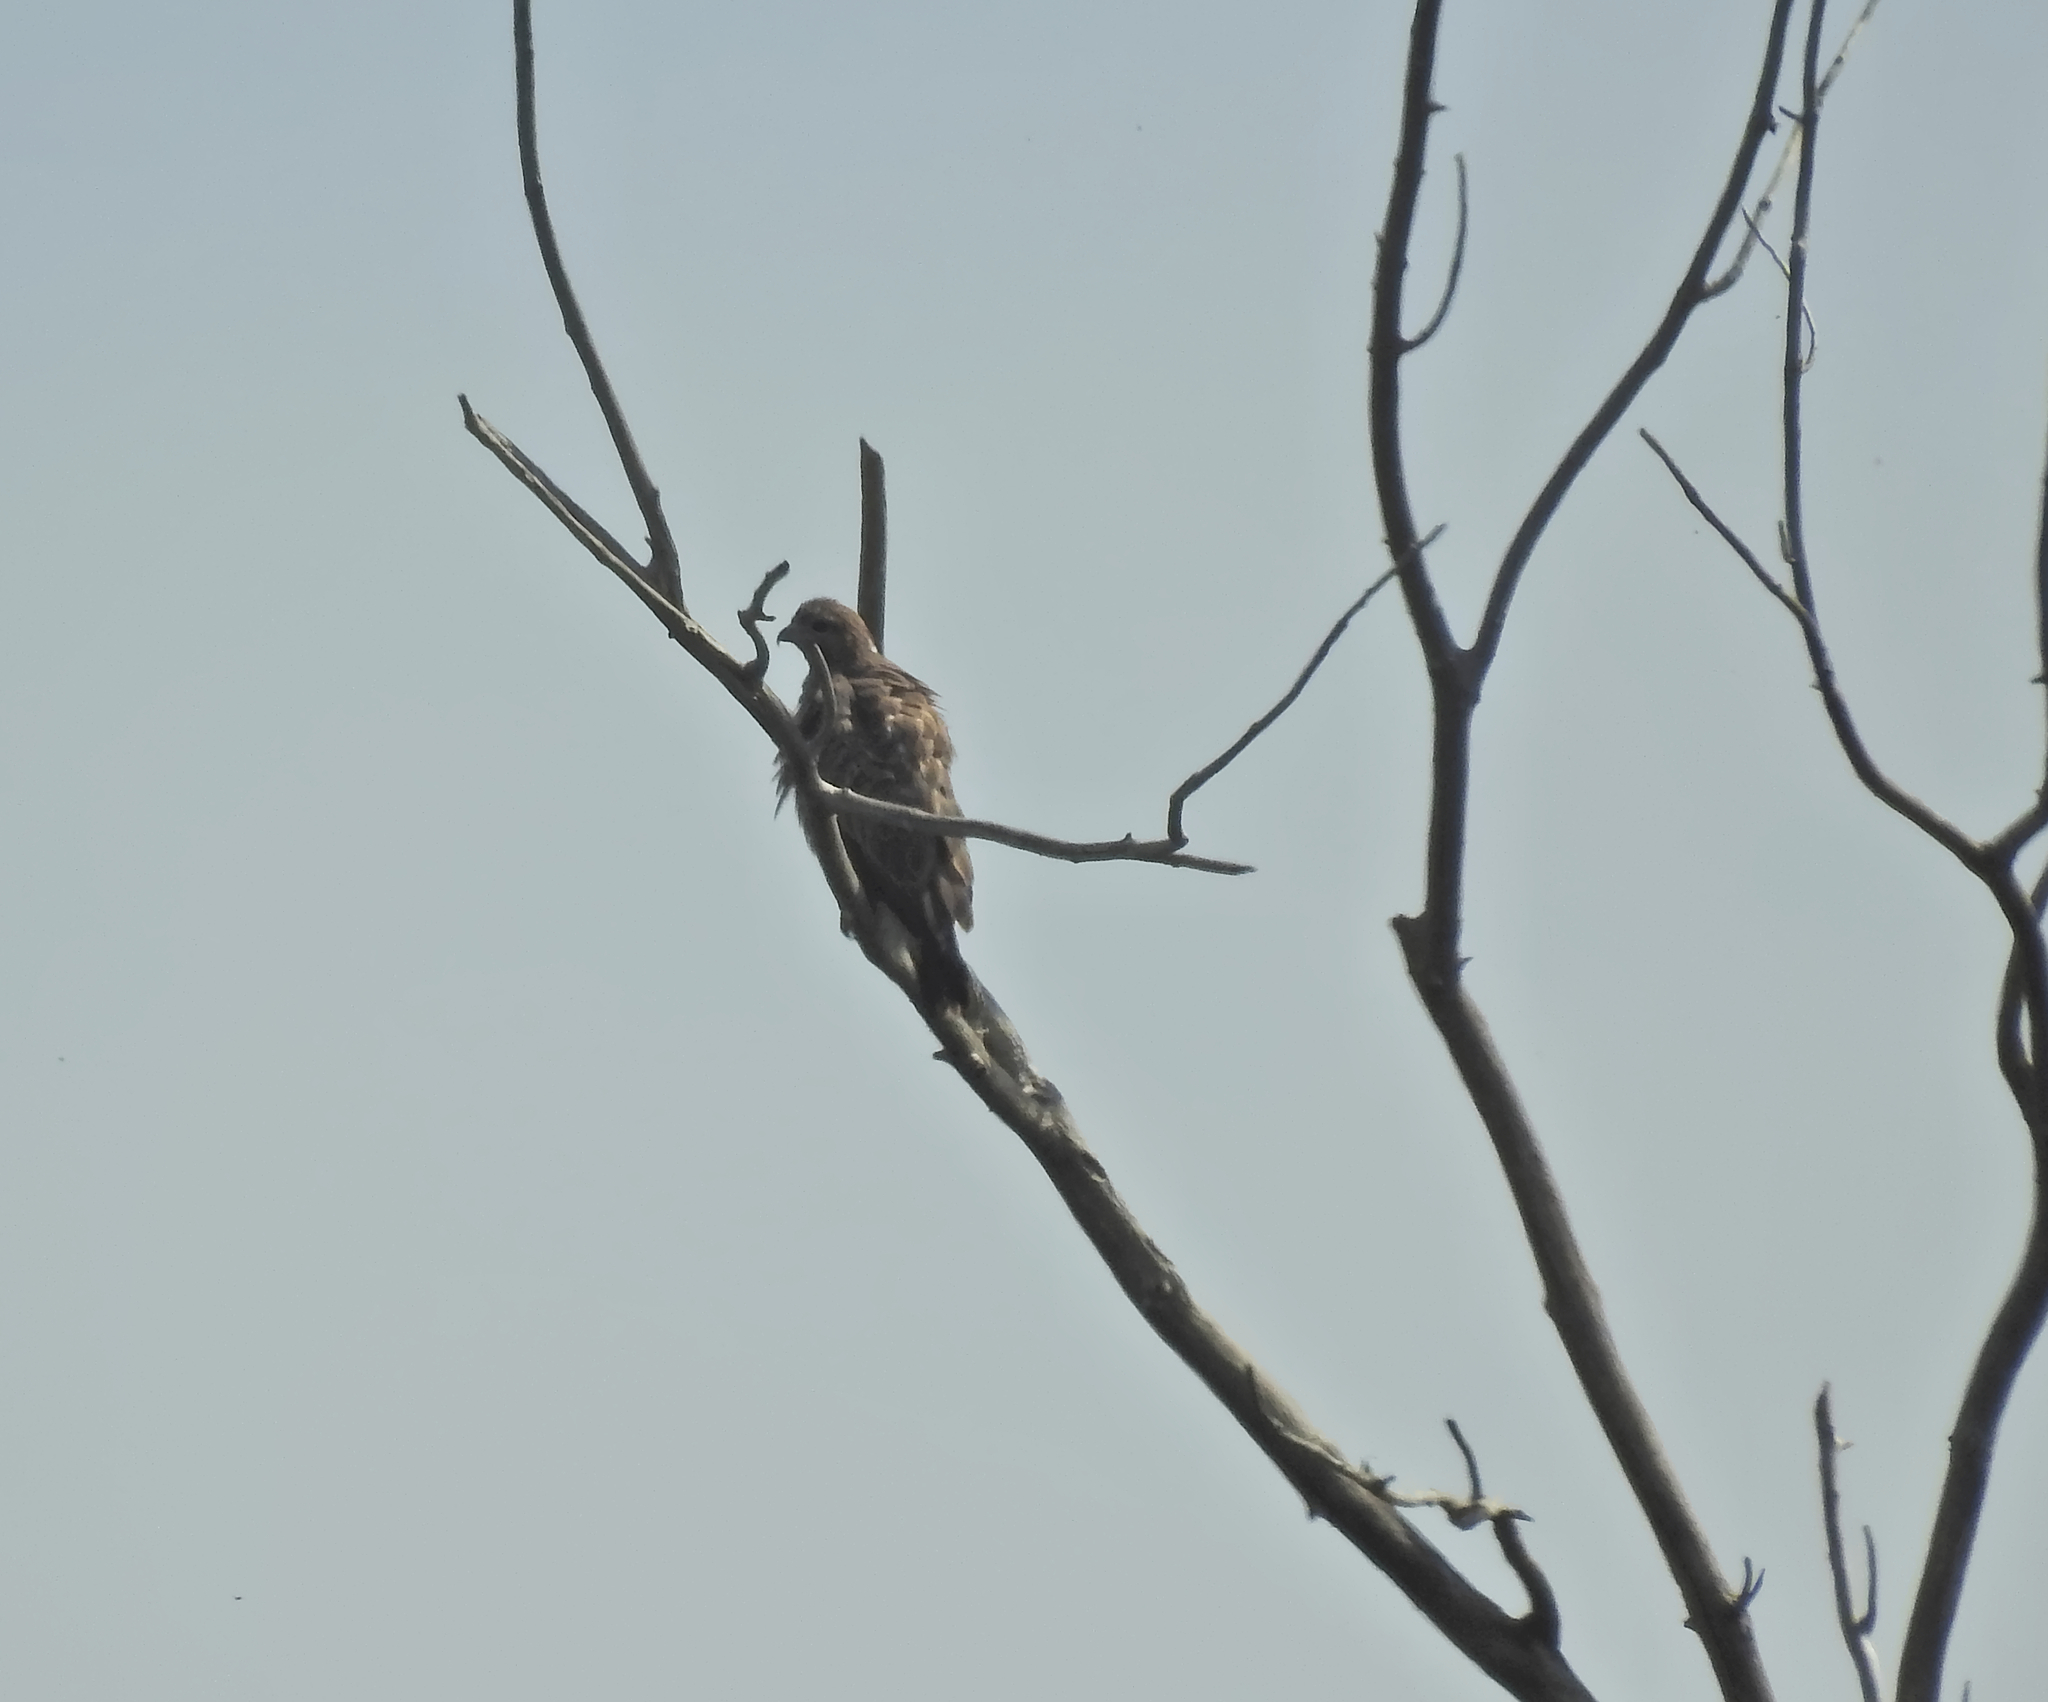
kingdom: Animalia
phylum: Chordata
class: Aves
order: Accipitriformes
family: Accipitridae
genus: Buteo
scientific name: Buteo buteo
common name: Common buzzard
